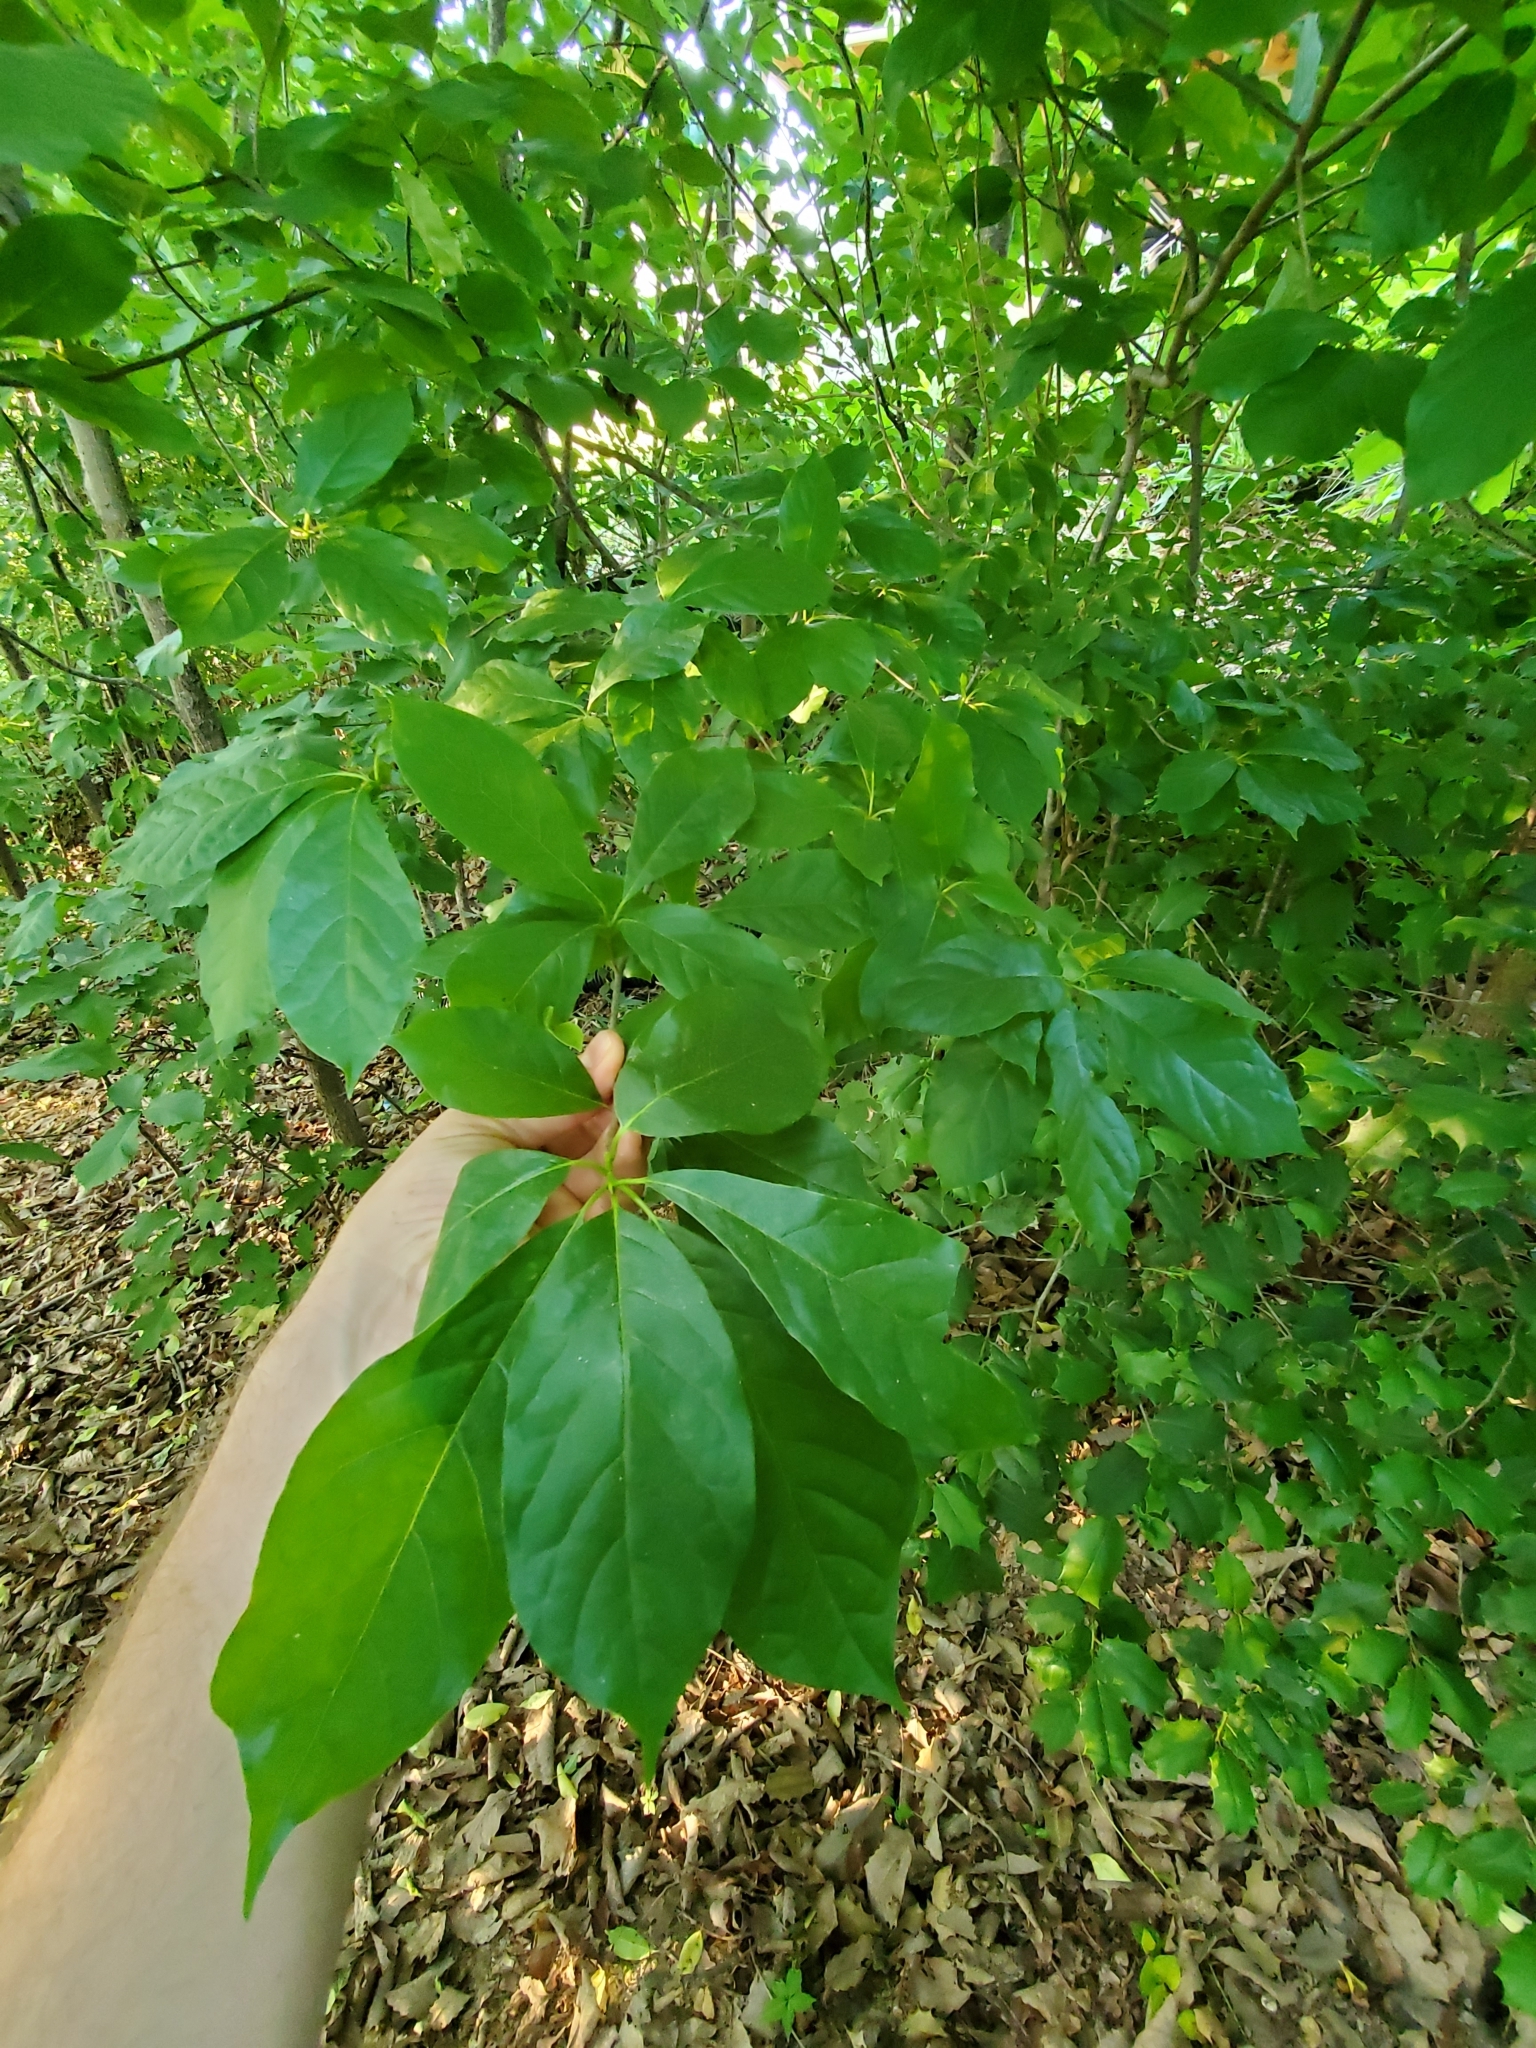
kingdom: Plantae
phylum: Tracheophyta
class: Magnoliopsida
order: Cornales
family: Nyssaceae
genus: Nyssa
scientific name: Nyssa sylvatica
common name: Black tupelo
